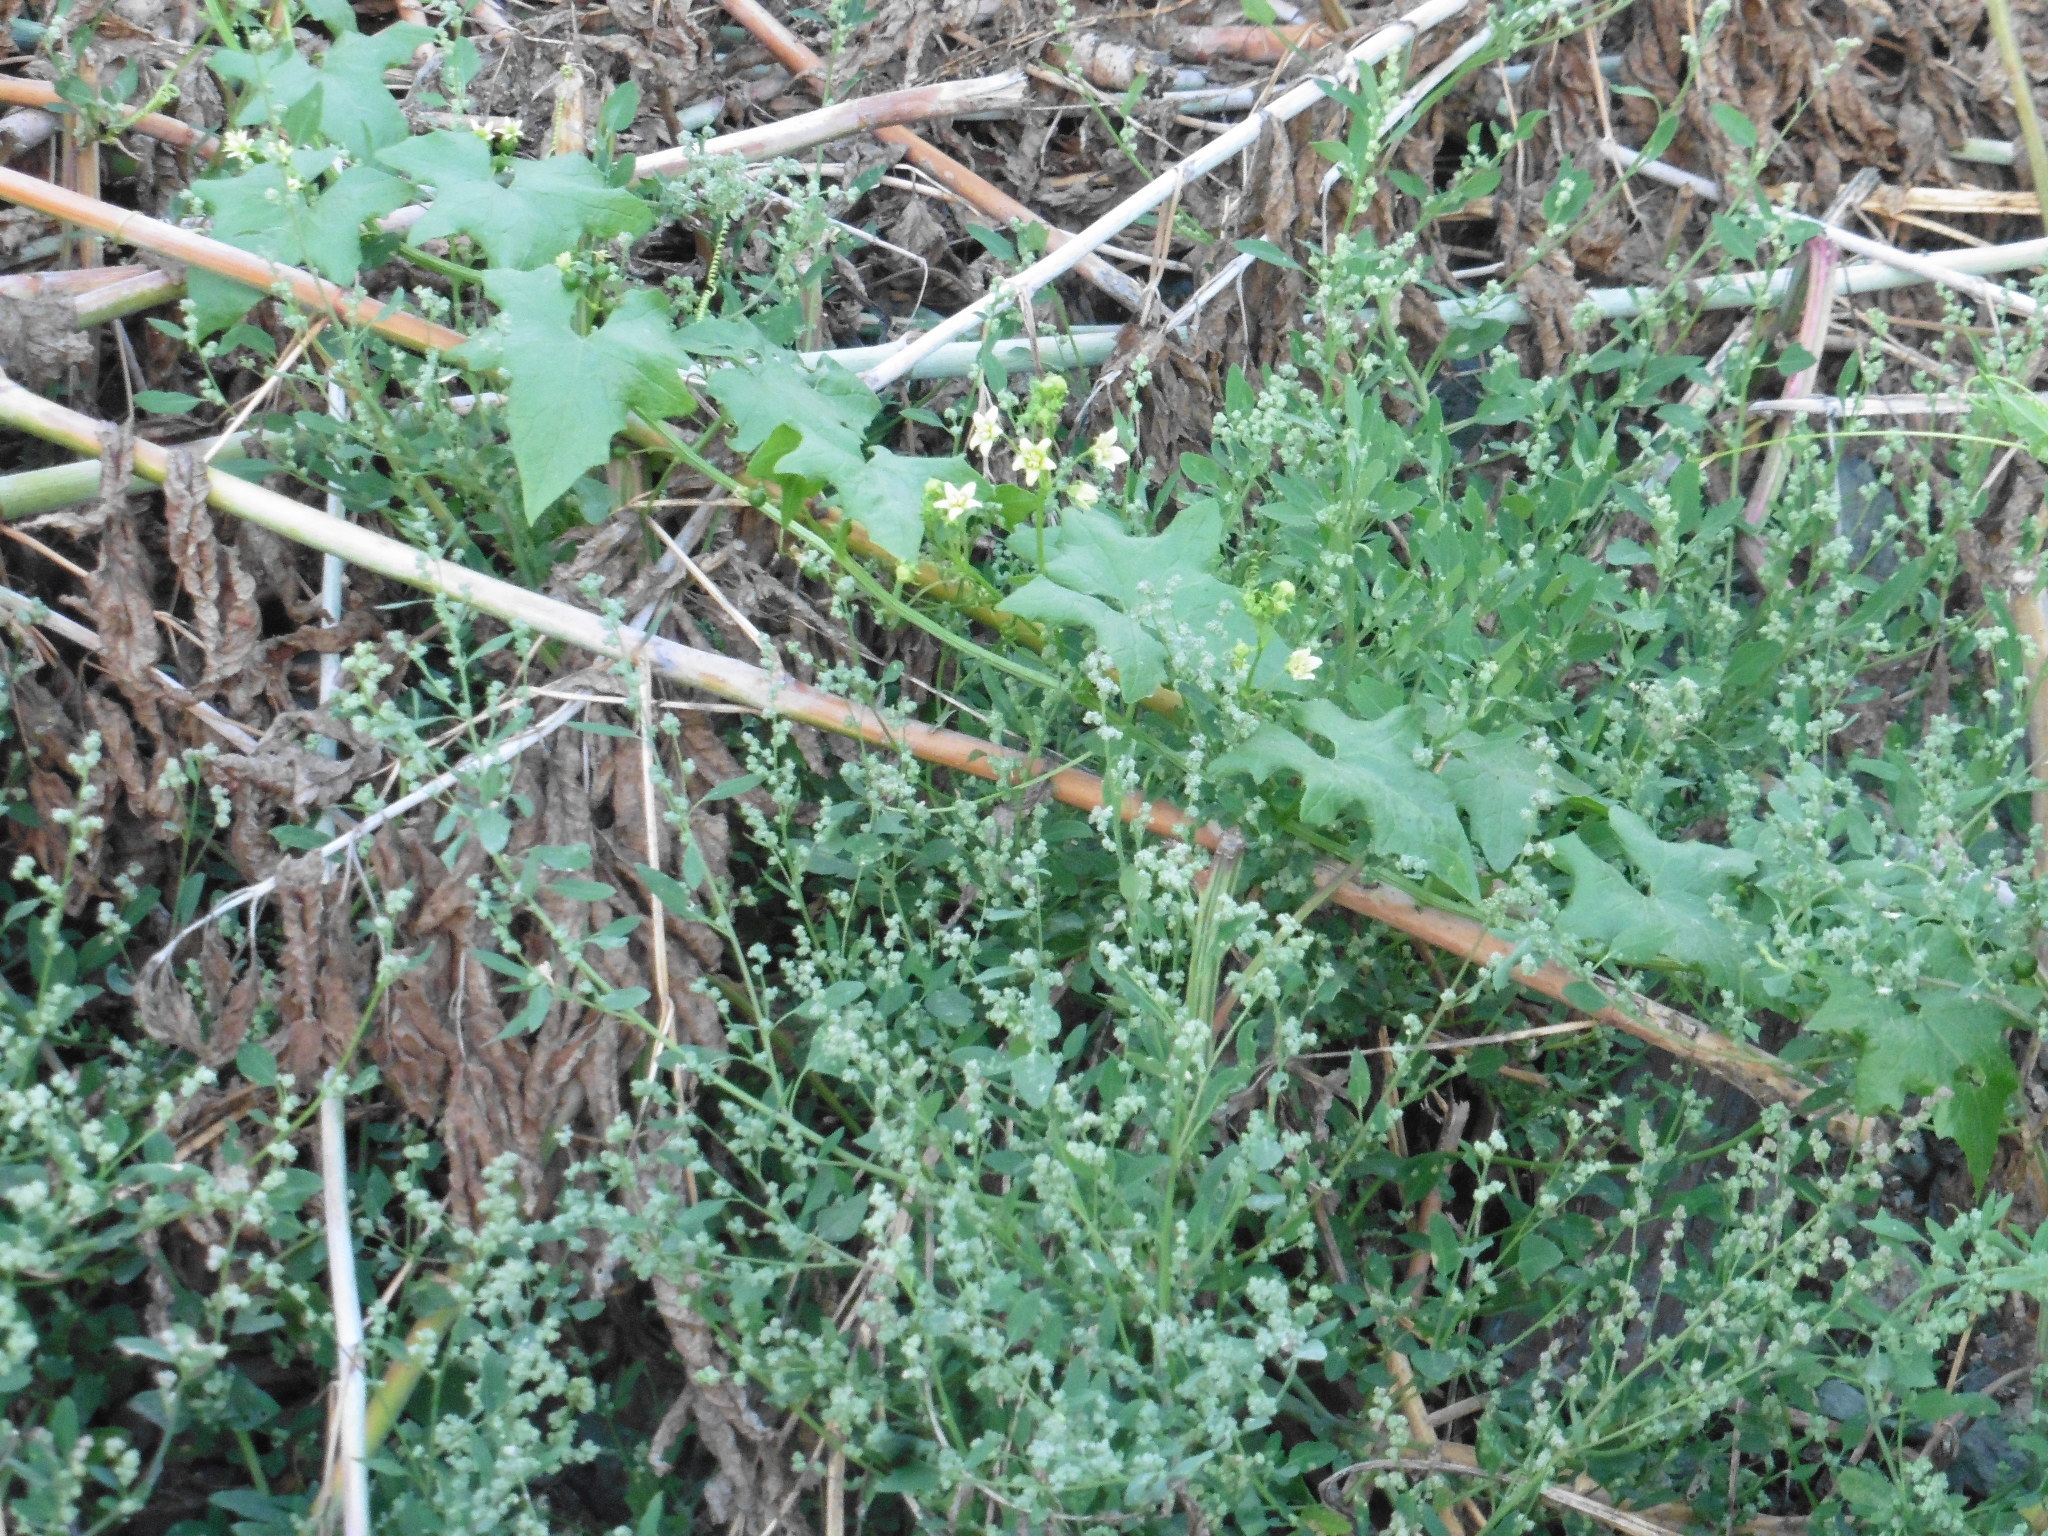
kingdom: Plantae
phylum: Tracheophyta
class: Magnoliopsida
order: Cucurbitales
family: Cucurbitaceae
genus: Bryonia
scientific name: Bryonia alba
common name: White bryony
